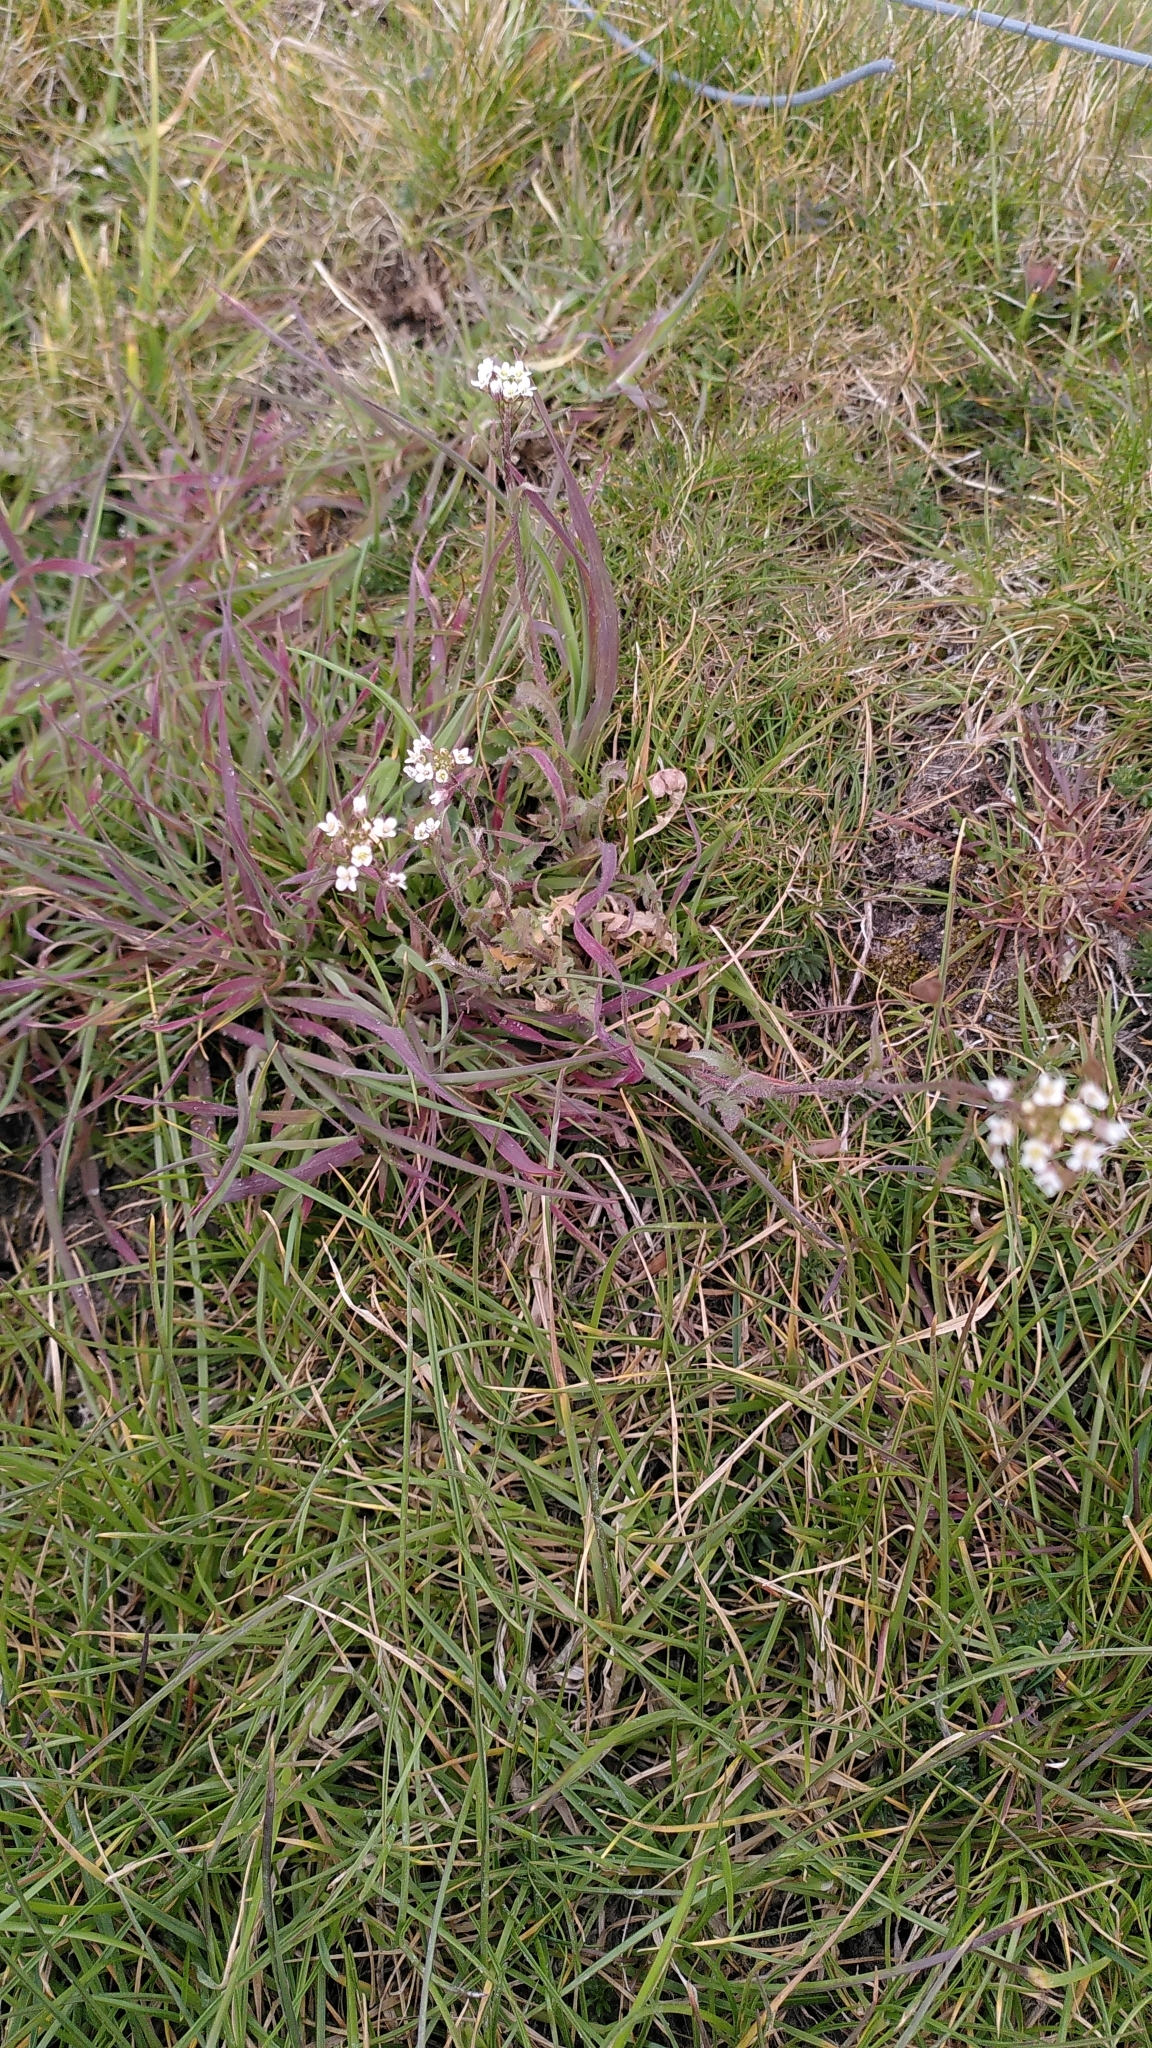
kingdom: Plantae
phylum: Tracheophyta
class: Magnoliopsida
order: Brassicales
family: Brassicaceae
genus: Capsella
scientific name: Capsella bursa-pastoris
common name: Shepherd's purse
